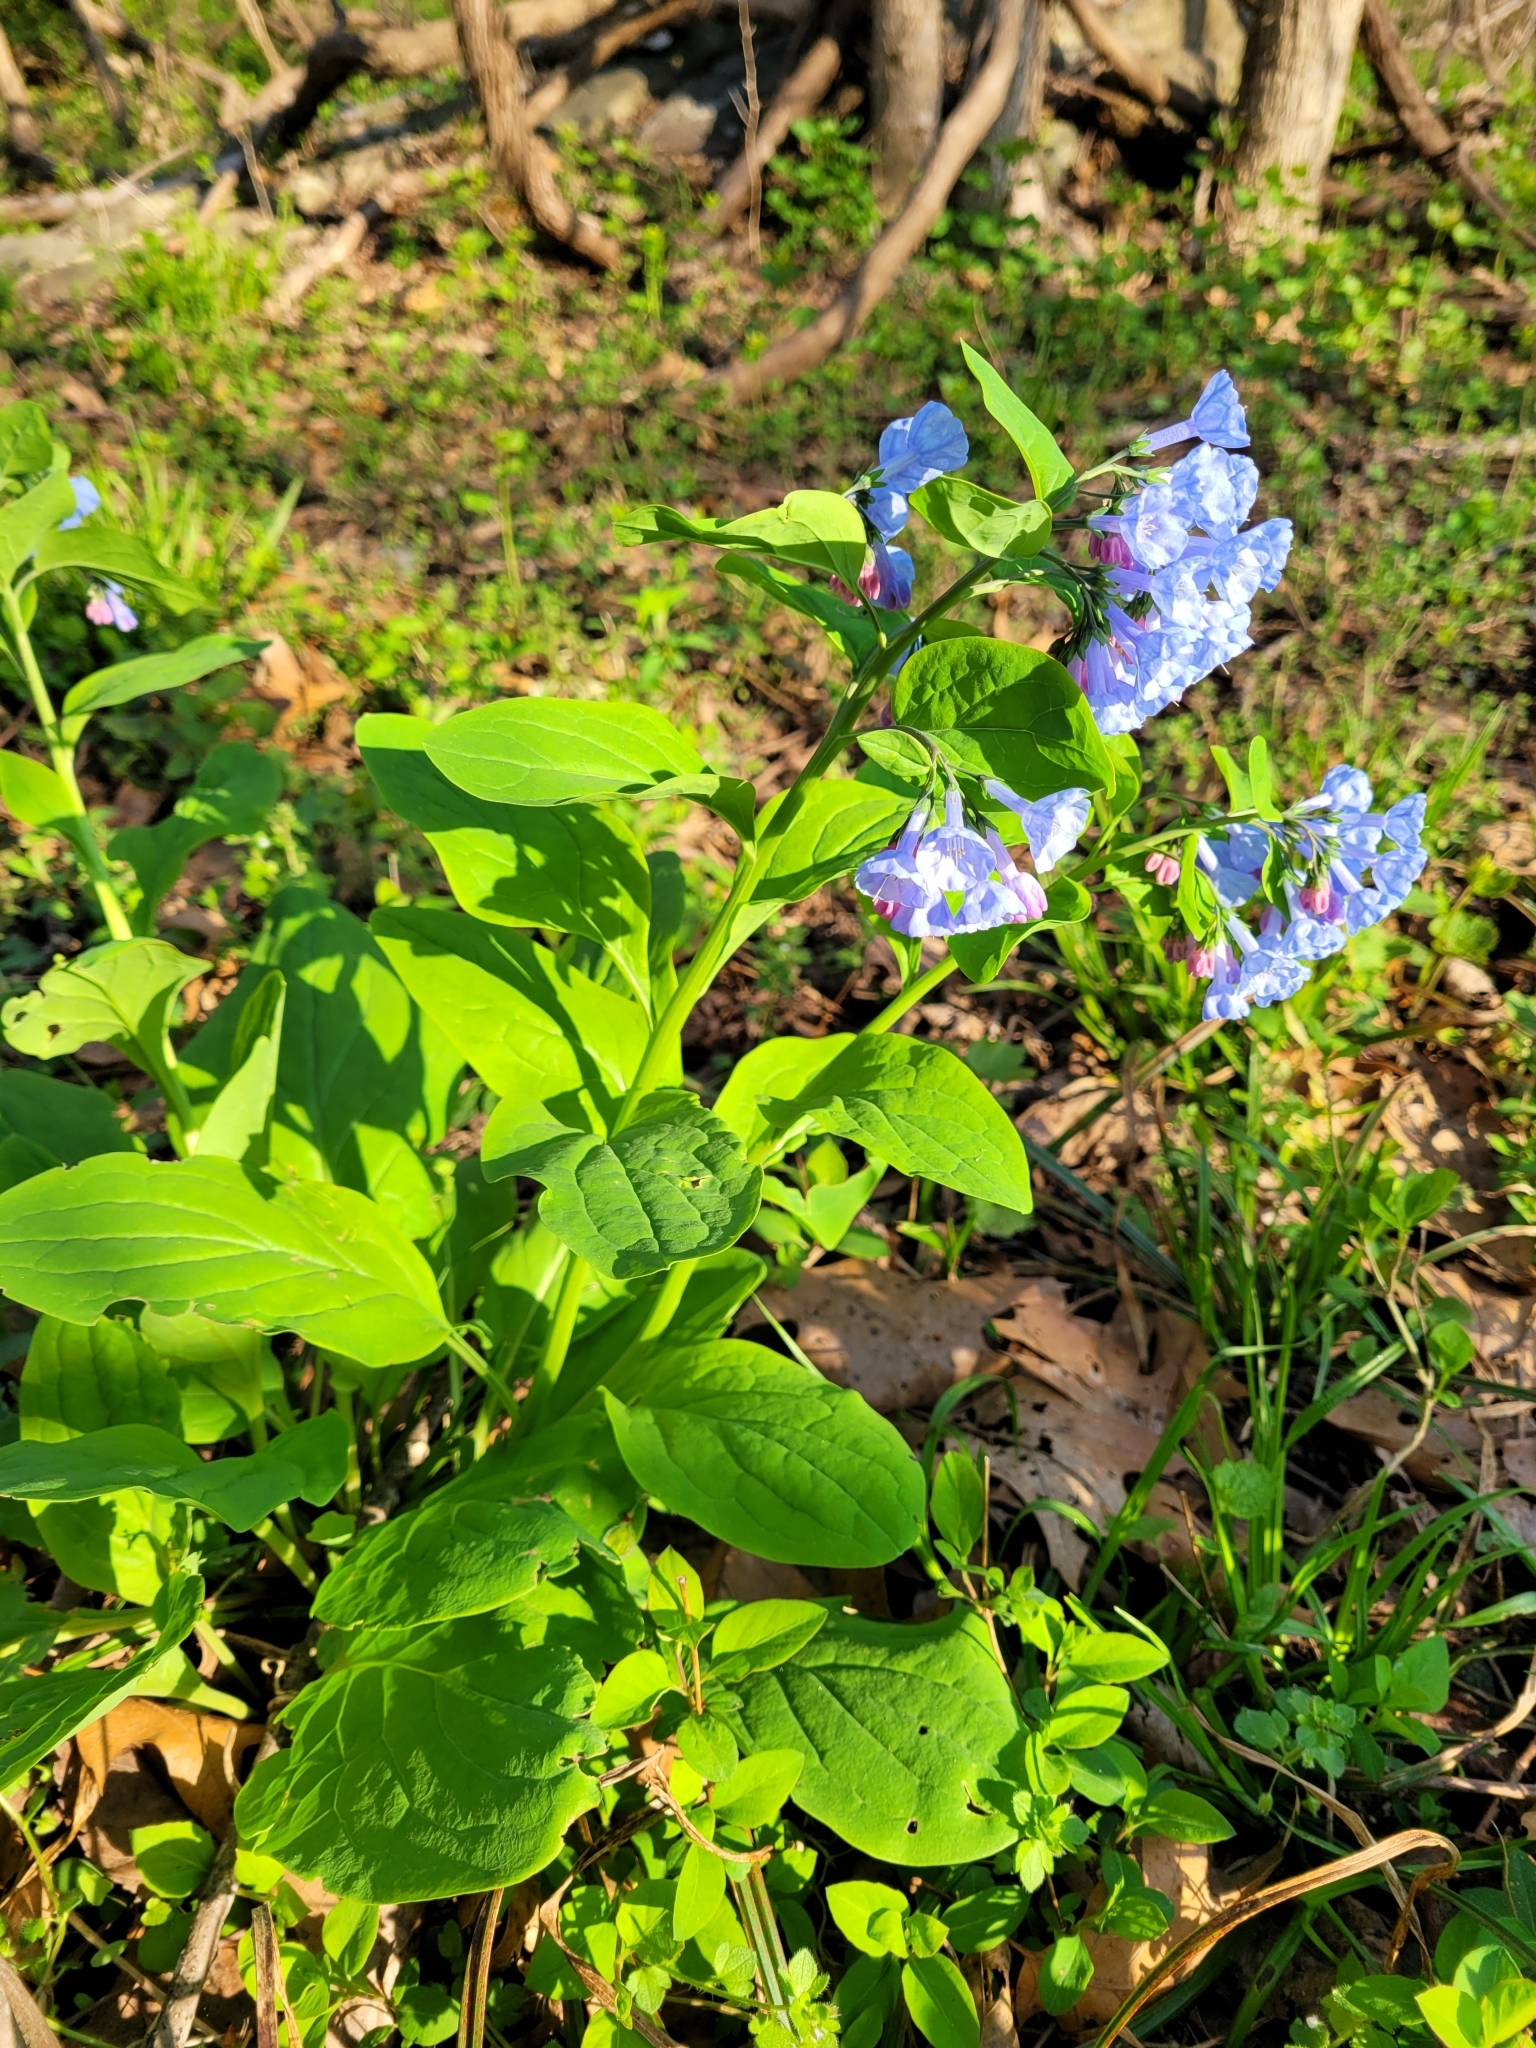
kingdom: Plantae
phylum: Tracheophyta
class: Magnoliopsida
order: Boraginales
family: Boraginaceae
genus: Mertensia
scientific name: Mertensia virginica
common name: Virginia bluebells
